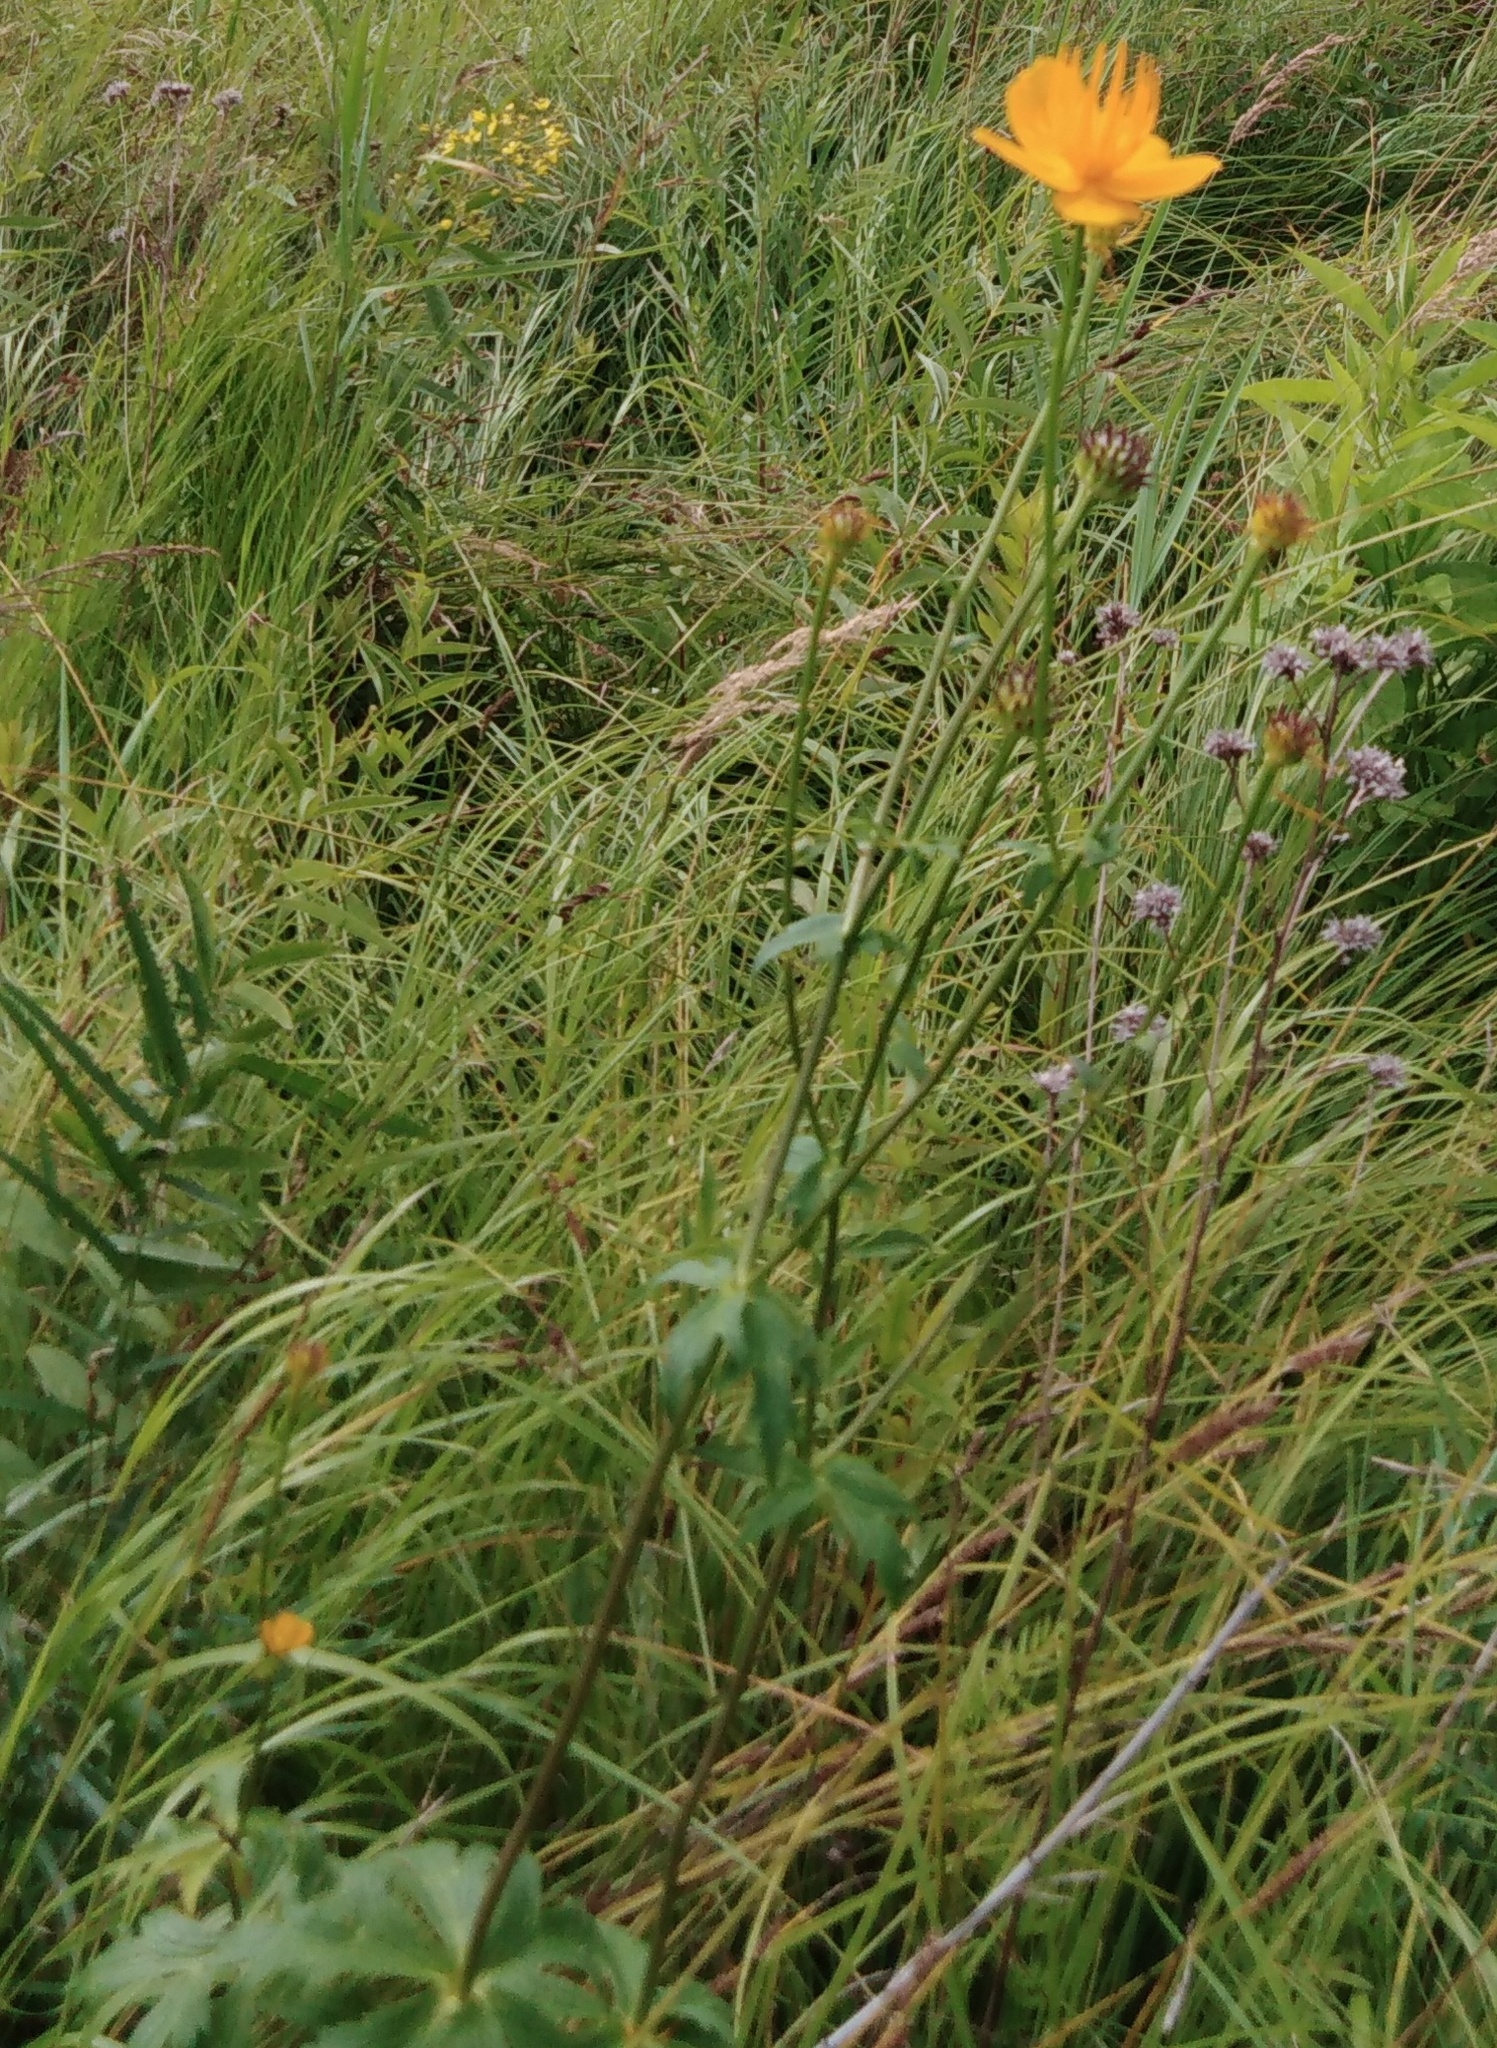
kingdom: Plantae
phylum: Tracheophyta
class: Magnoliopsida
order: Ranunculales
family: Ranunculaceae
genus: Trollius
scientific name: Trollius chinensis
